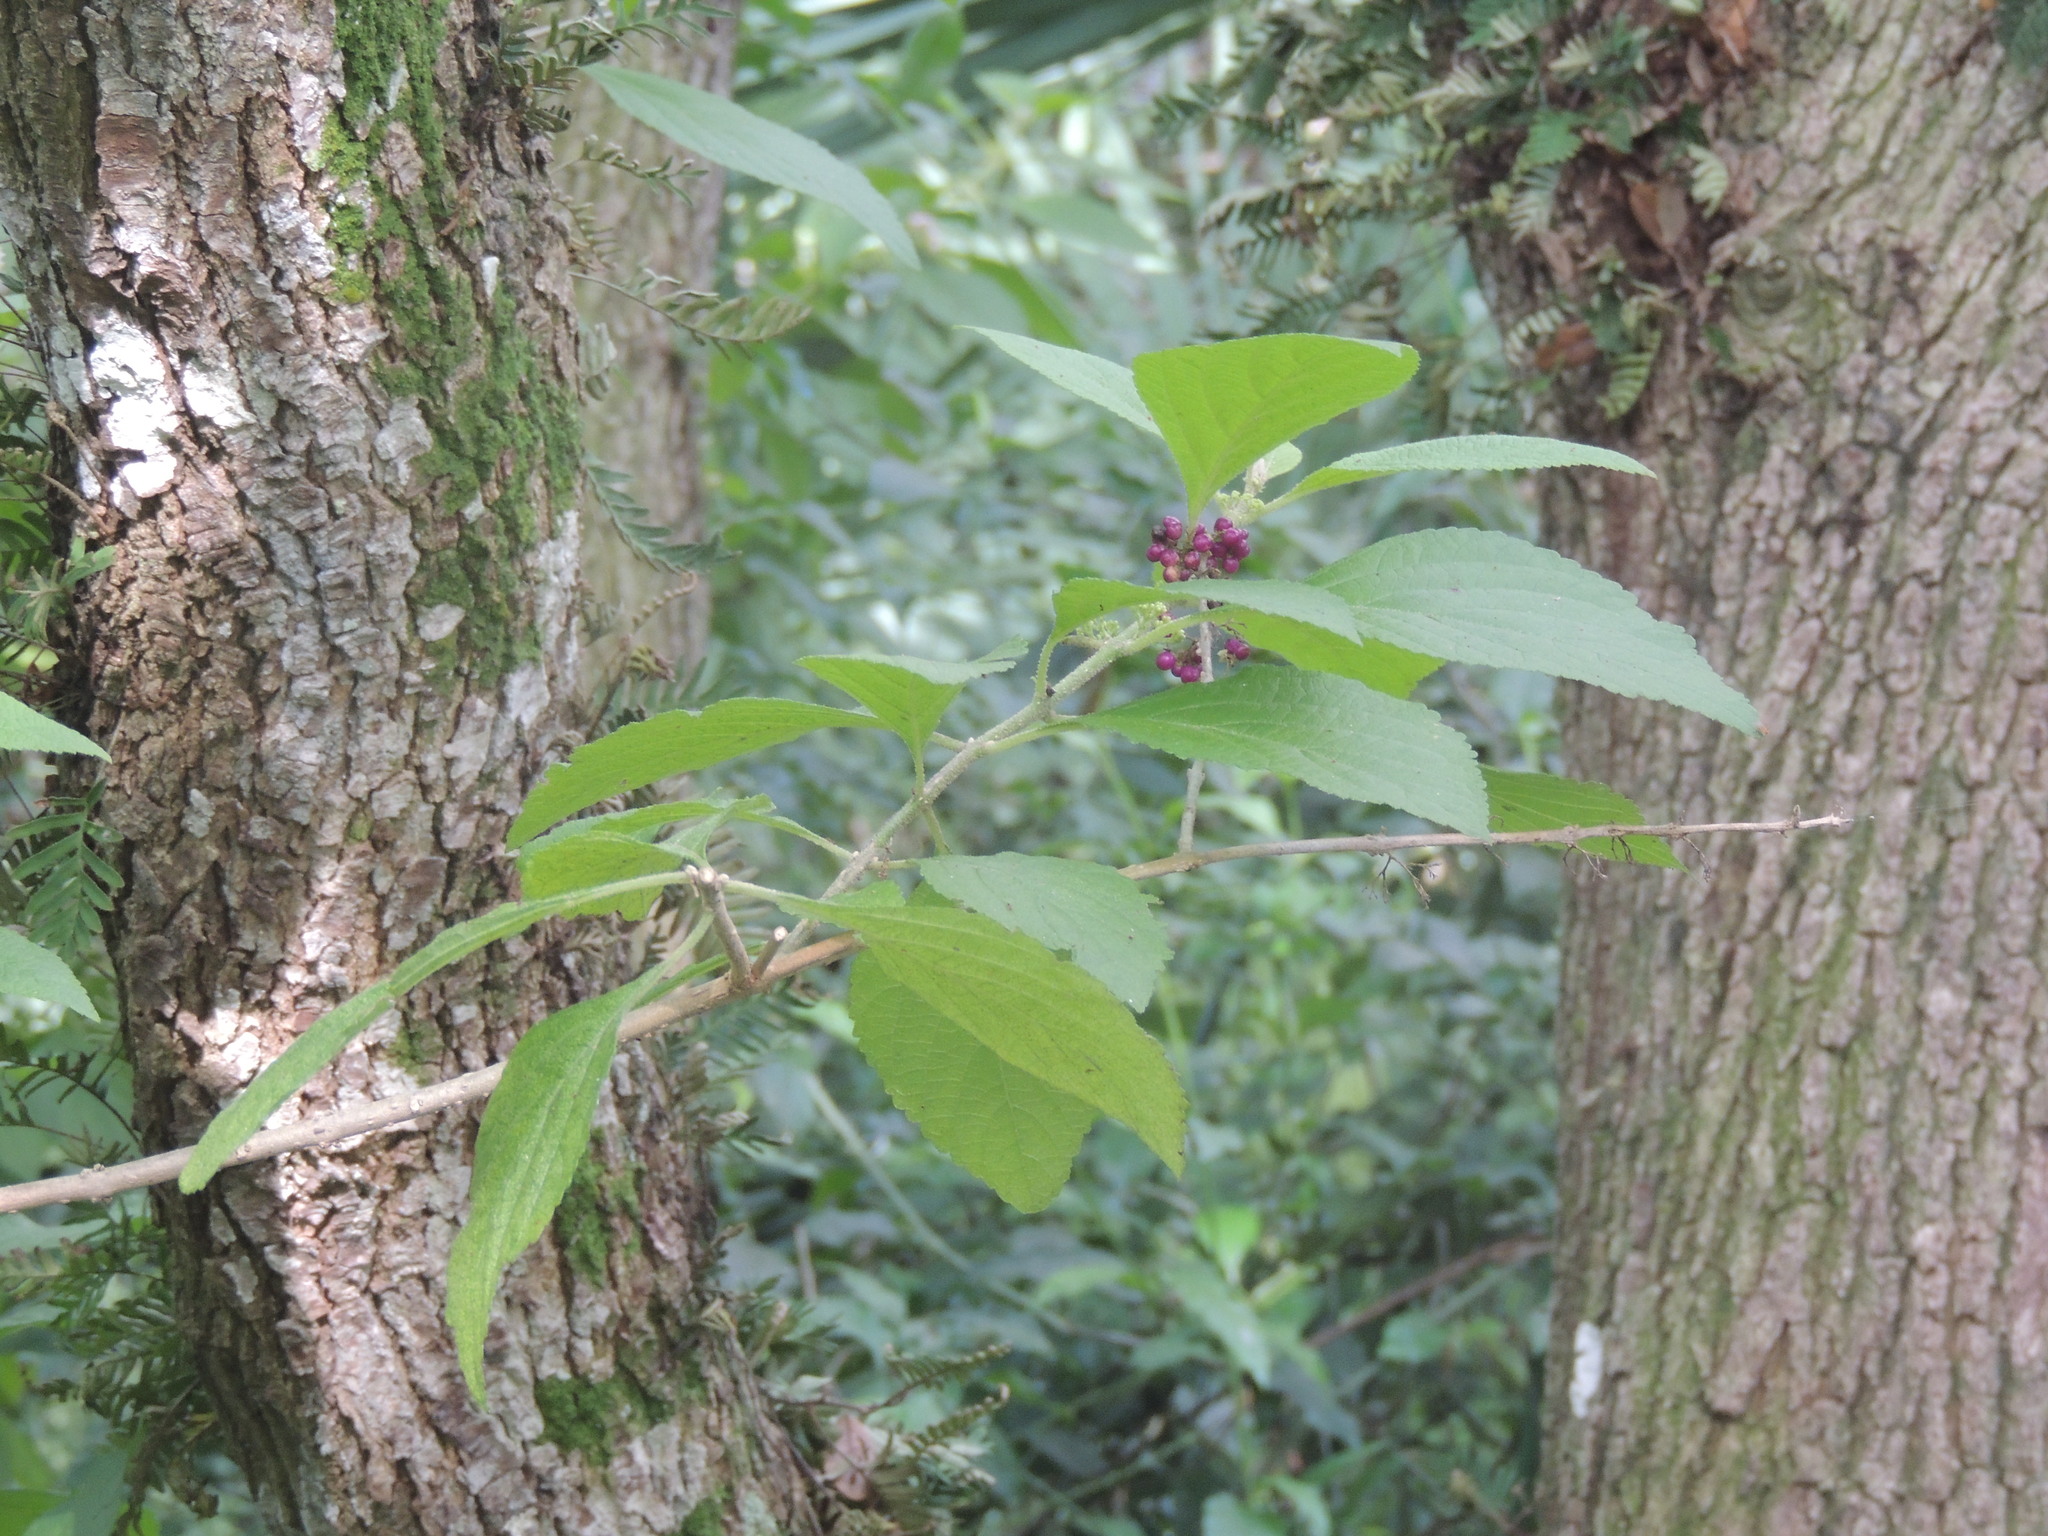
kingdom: Plantae
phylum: Tracheophyta
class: Magnoliopsida
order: Lamiales
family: Lamiaceae
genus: Callicarpa
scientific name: Callicarpa americana
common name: American beautyberry
